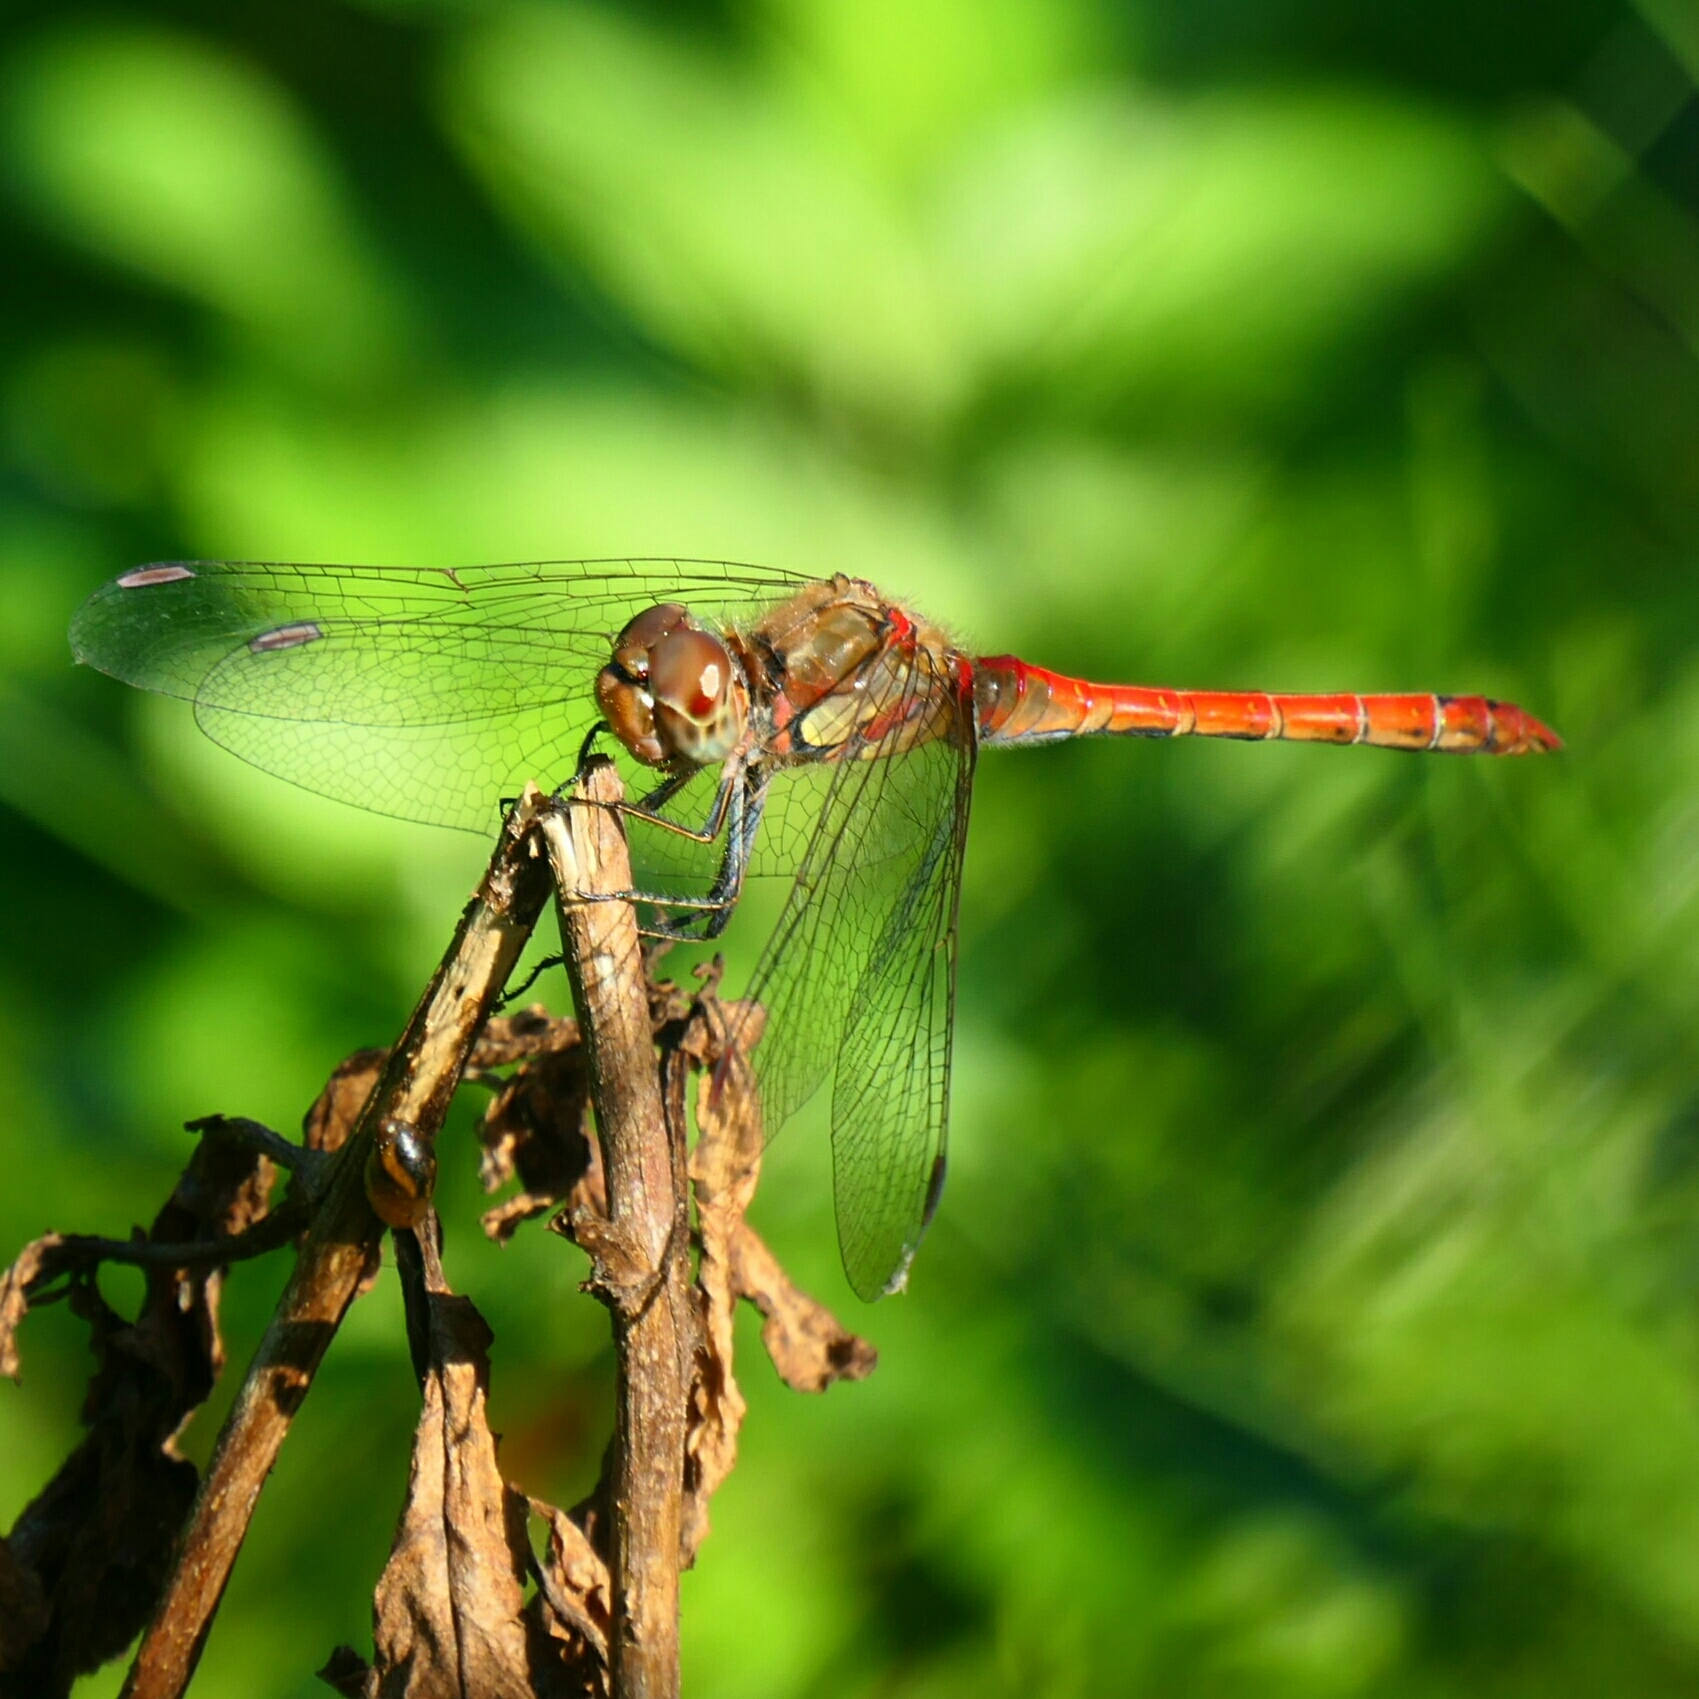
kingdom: Animalia
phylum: Arthropoda
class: Insecta
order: Odonata
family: Libellulidae
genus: Sympetrum
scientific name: Sympetrum striolatum
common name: Common darter
